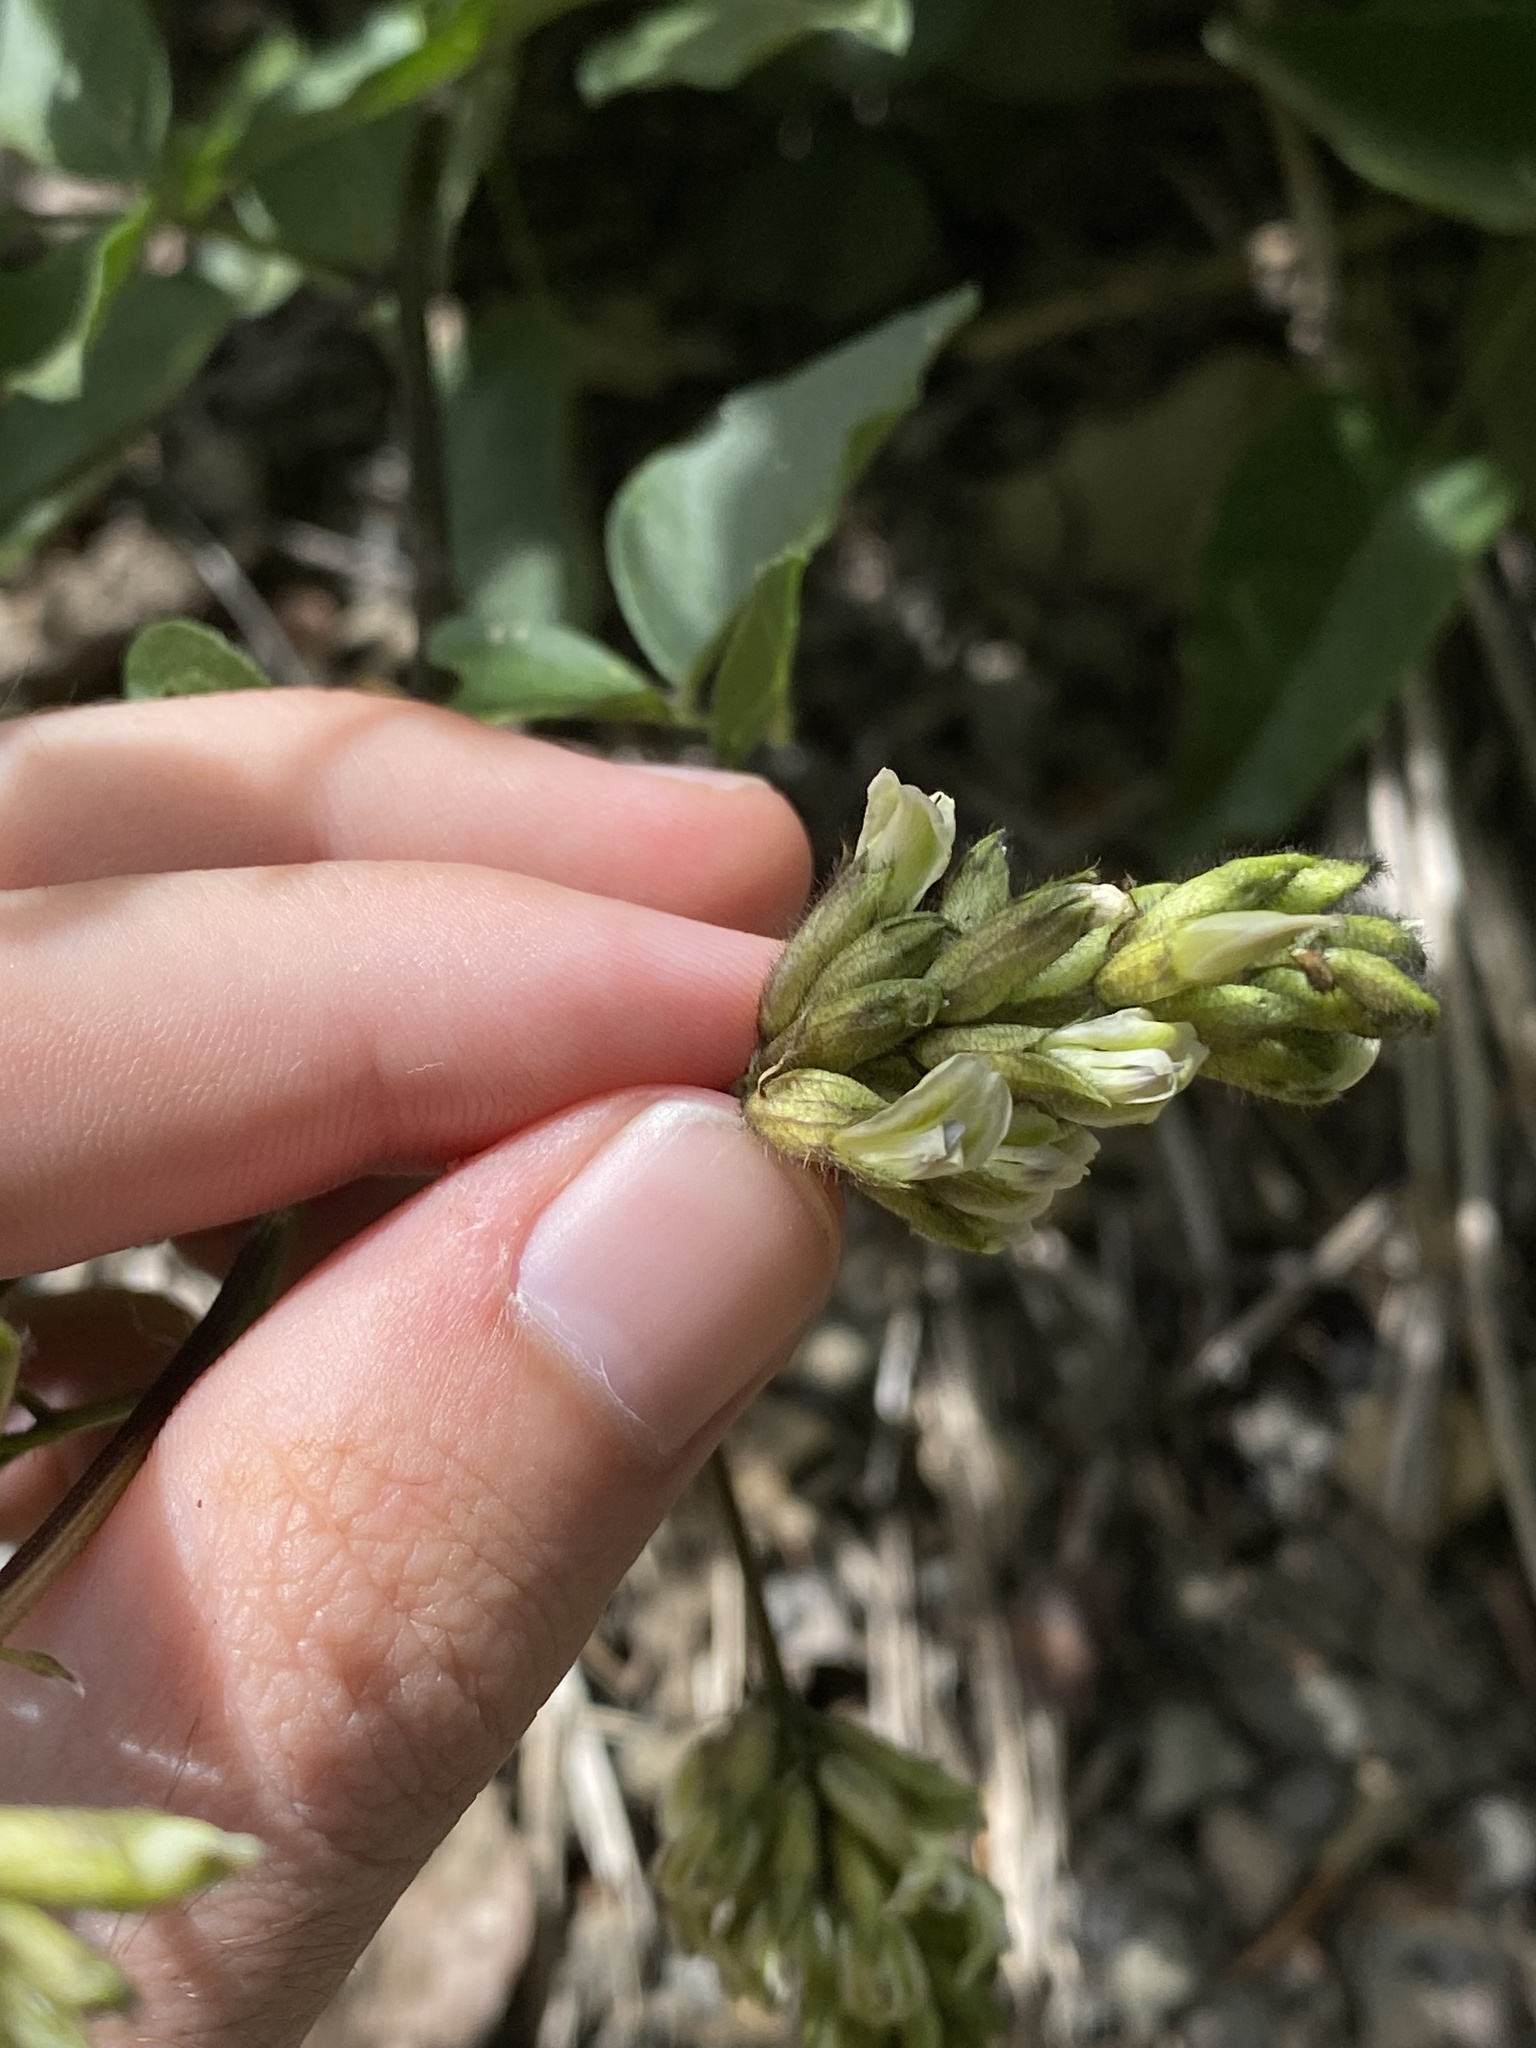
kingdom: Plantae
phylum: Tracheophyta
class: Magnoliopsida
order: Fabales
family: Fabaceae
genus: Rupertia
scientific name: Rupertia physodes
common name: California-tea
